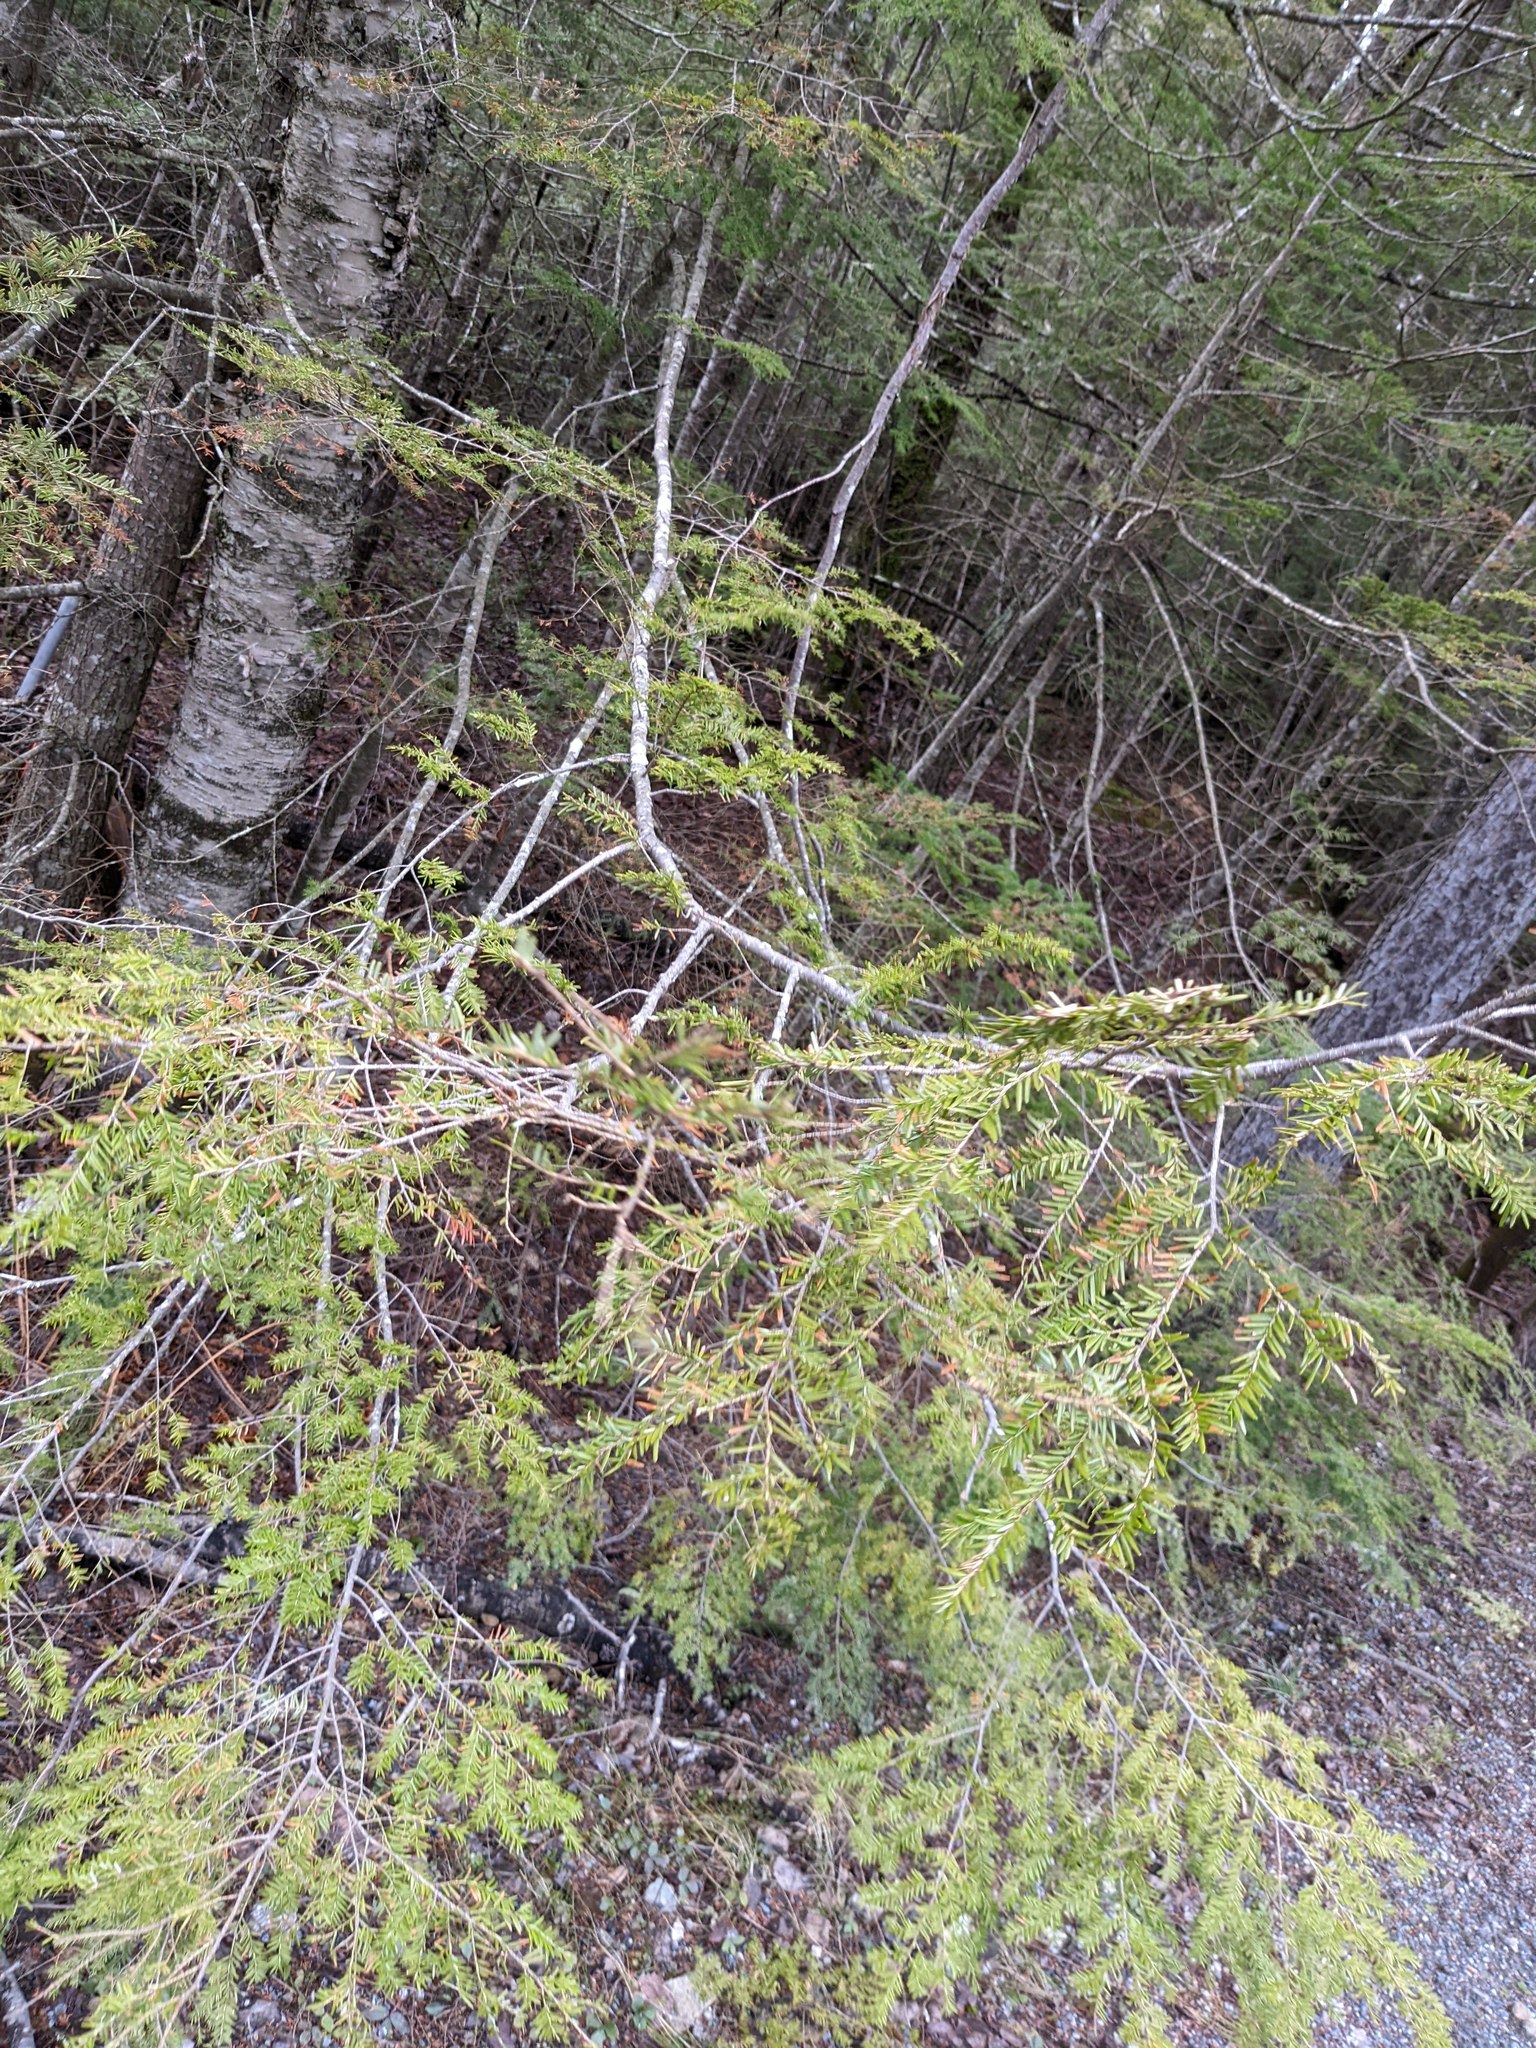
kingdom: Plantae
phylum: Tracheophyta
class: Pinopsida
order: Pinales
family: Pinaceae
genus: Tsuga
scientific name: Tsuga canadensis
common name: Eastern hemlock
